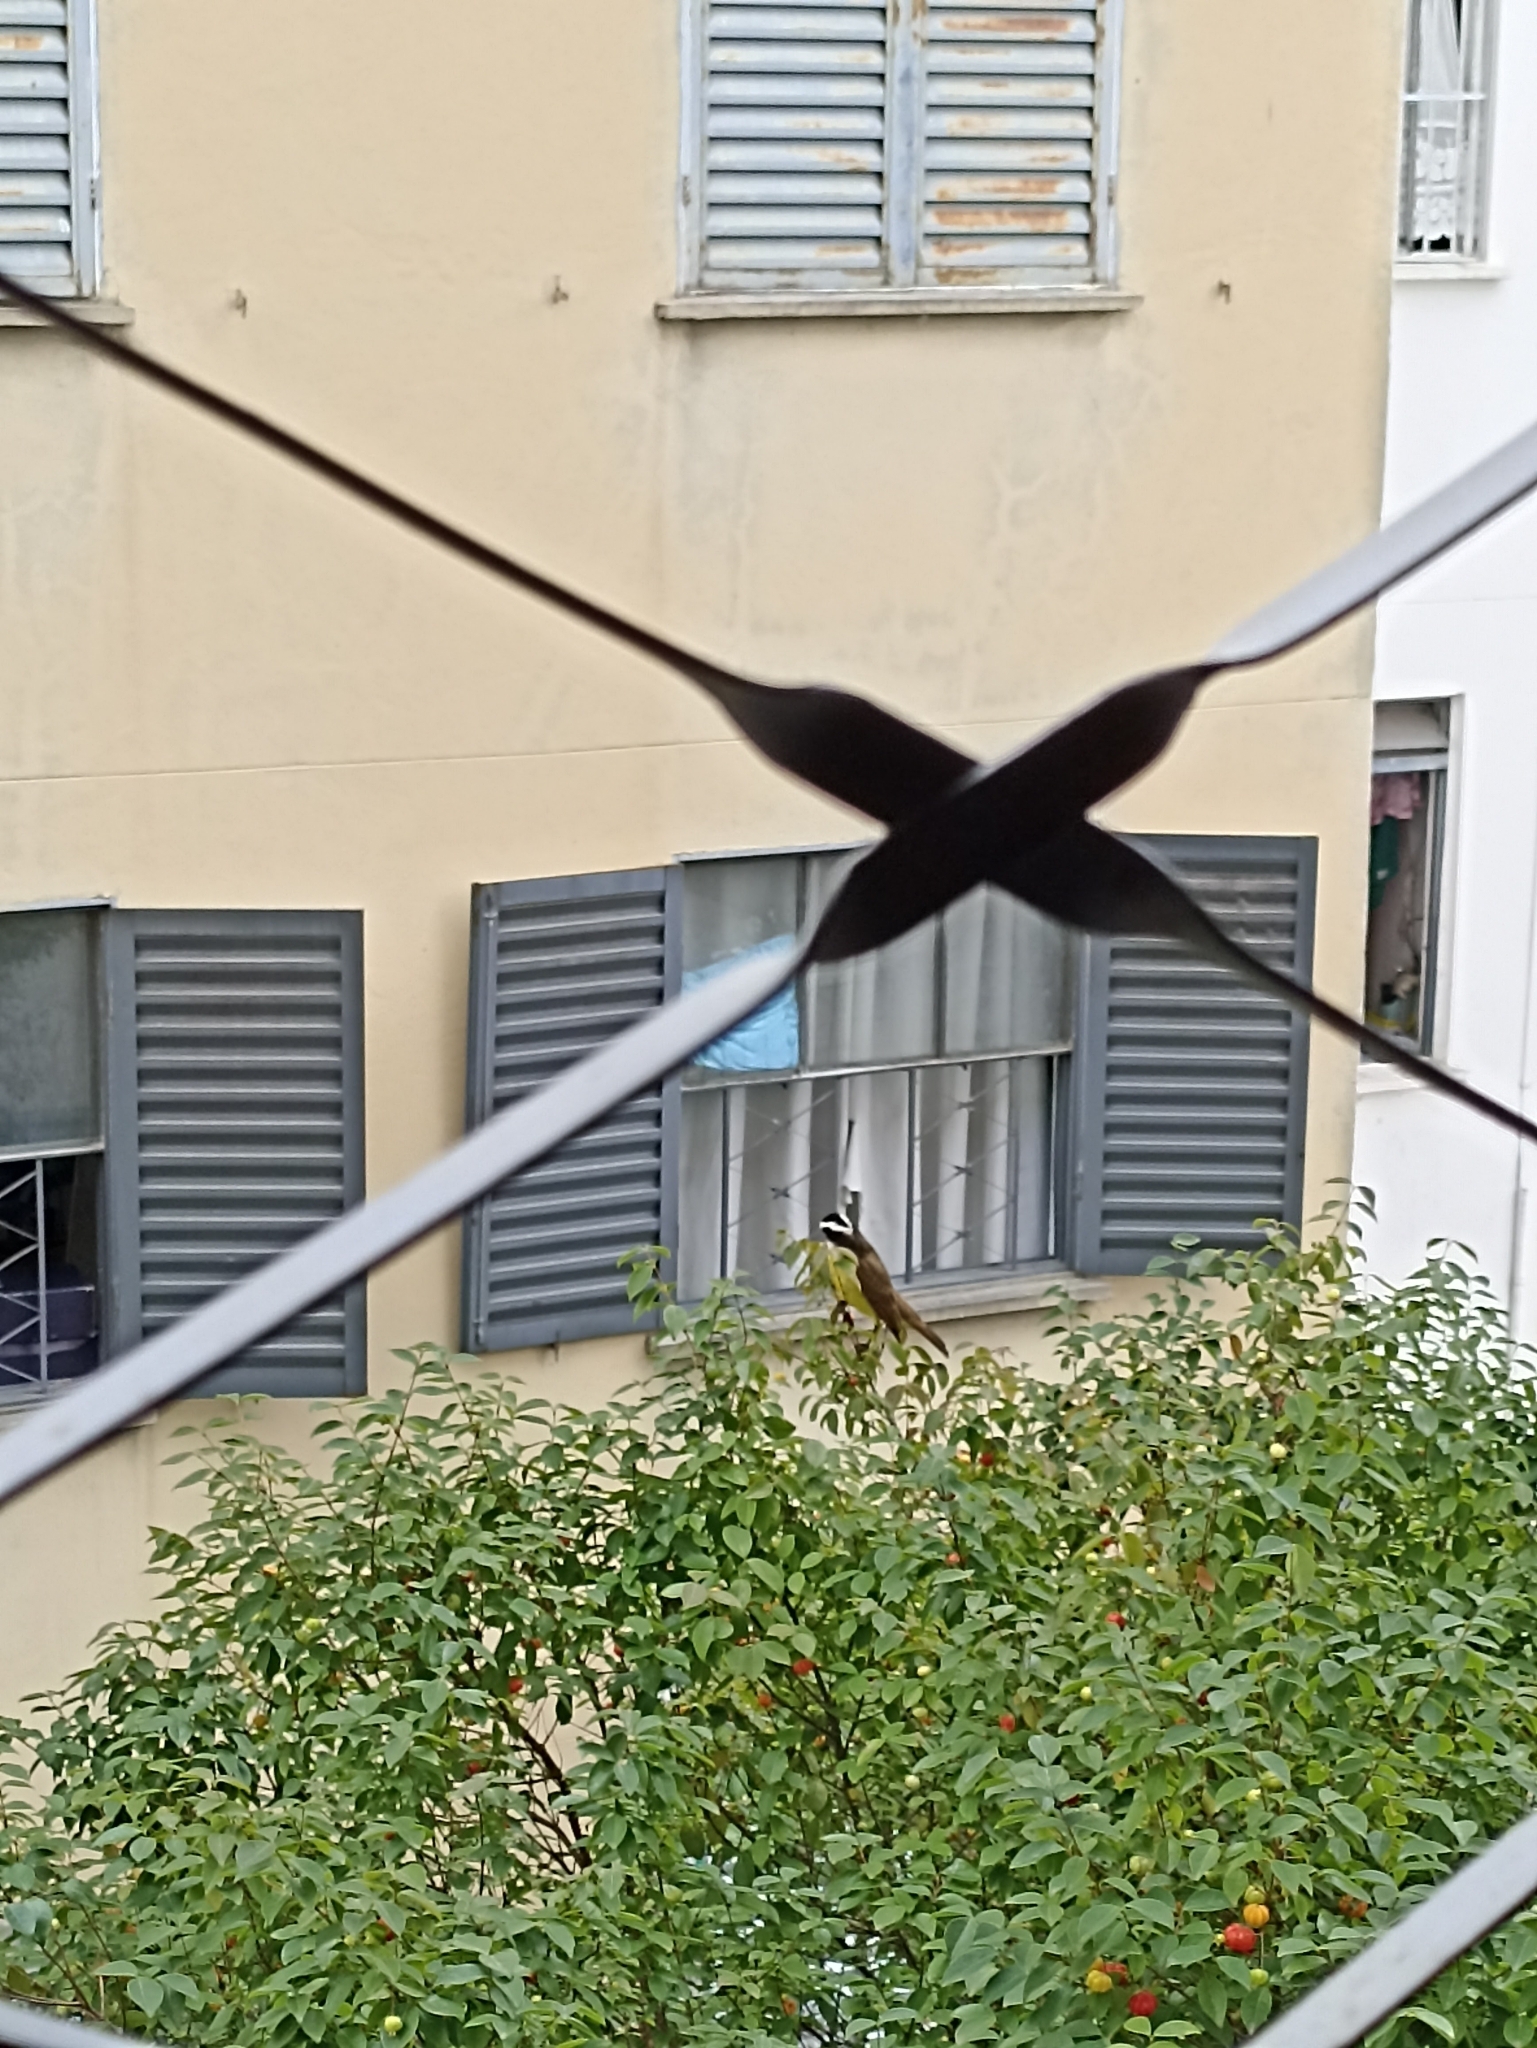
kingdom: Animalia
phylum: Chordata
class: Aves
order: Passeriformes
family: Tyrannidae
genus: Pitangus
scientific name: Pitangus sulphuratus
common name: Great kiskadee
